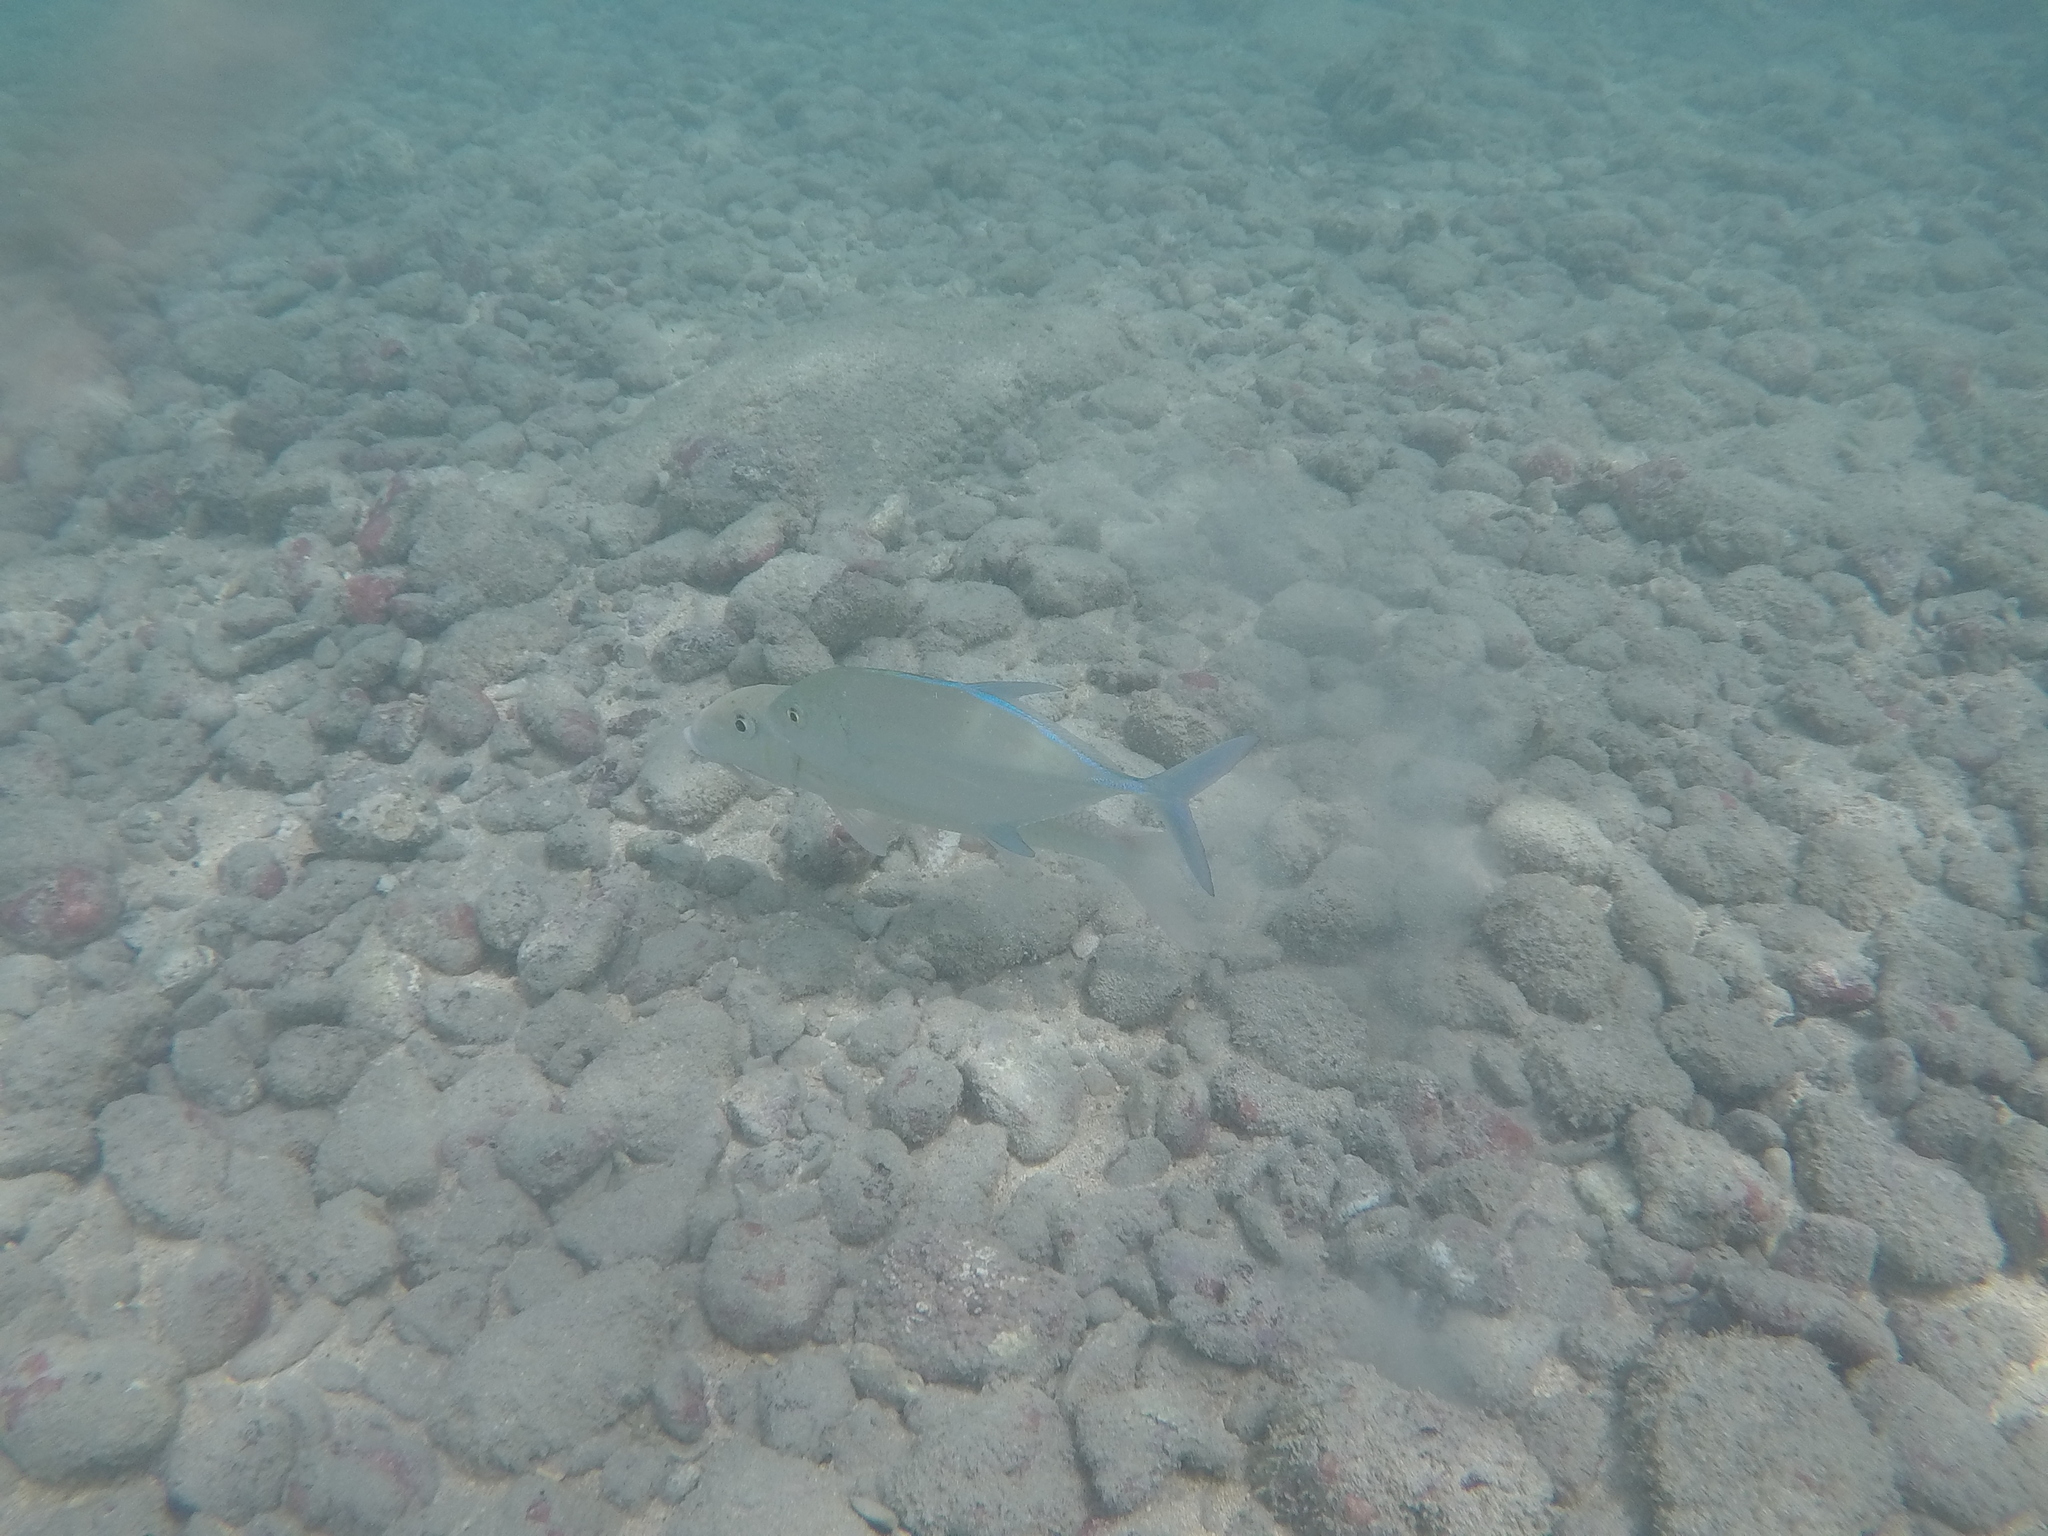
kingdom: Animalia
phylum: Chordata
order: Perciformes
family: Carangidae
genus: Caranx
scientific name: Caranx melampygus
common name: Bluefin trevally
